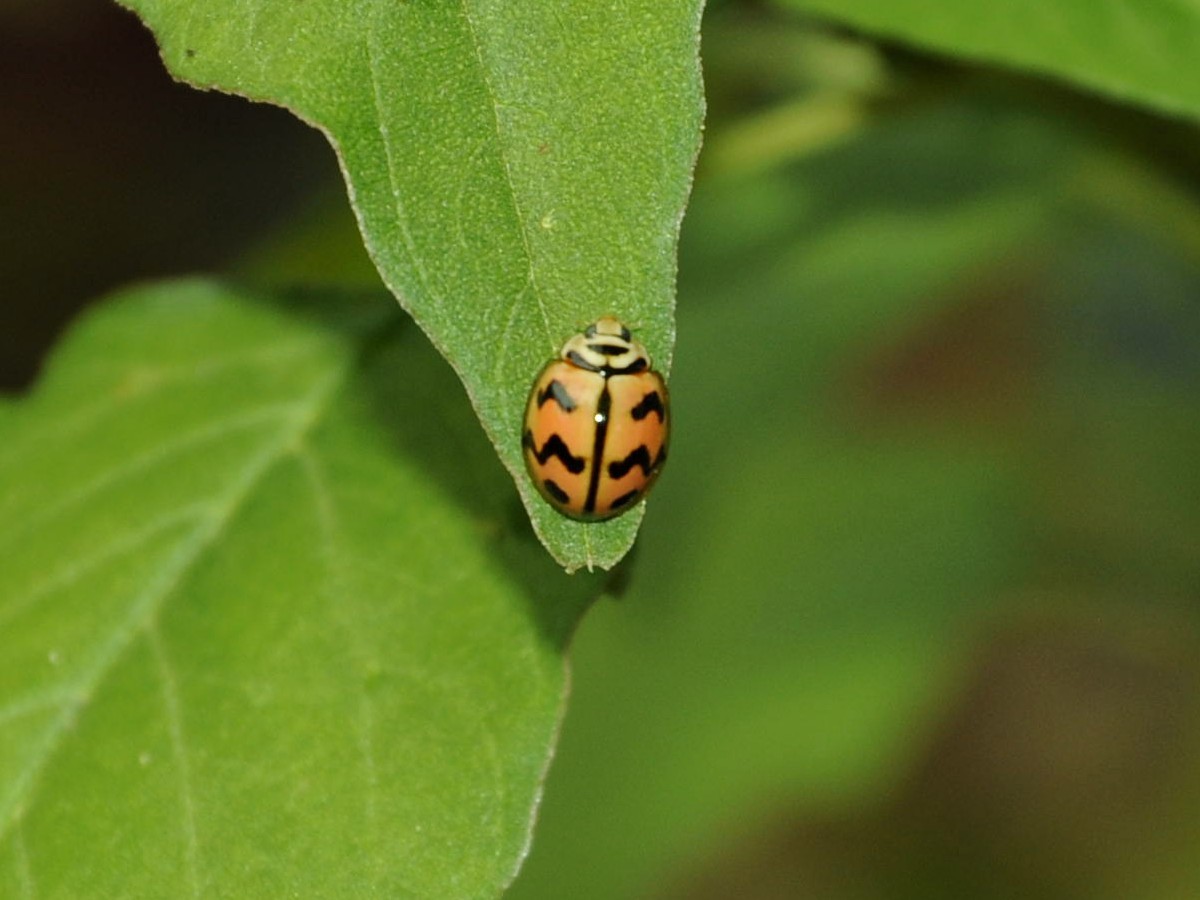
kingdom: Animalia
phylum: Arthropoda
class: Insecta
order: Coleoptera
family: Coccinellidae
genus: Cheilomenes
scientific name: Cheilomenes sexmaculata
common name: Ladybird beetle
